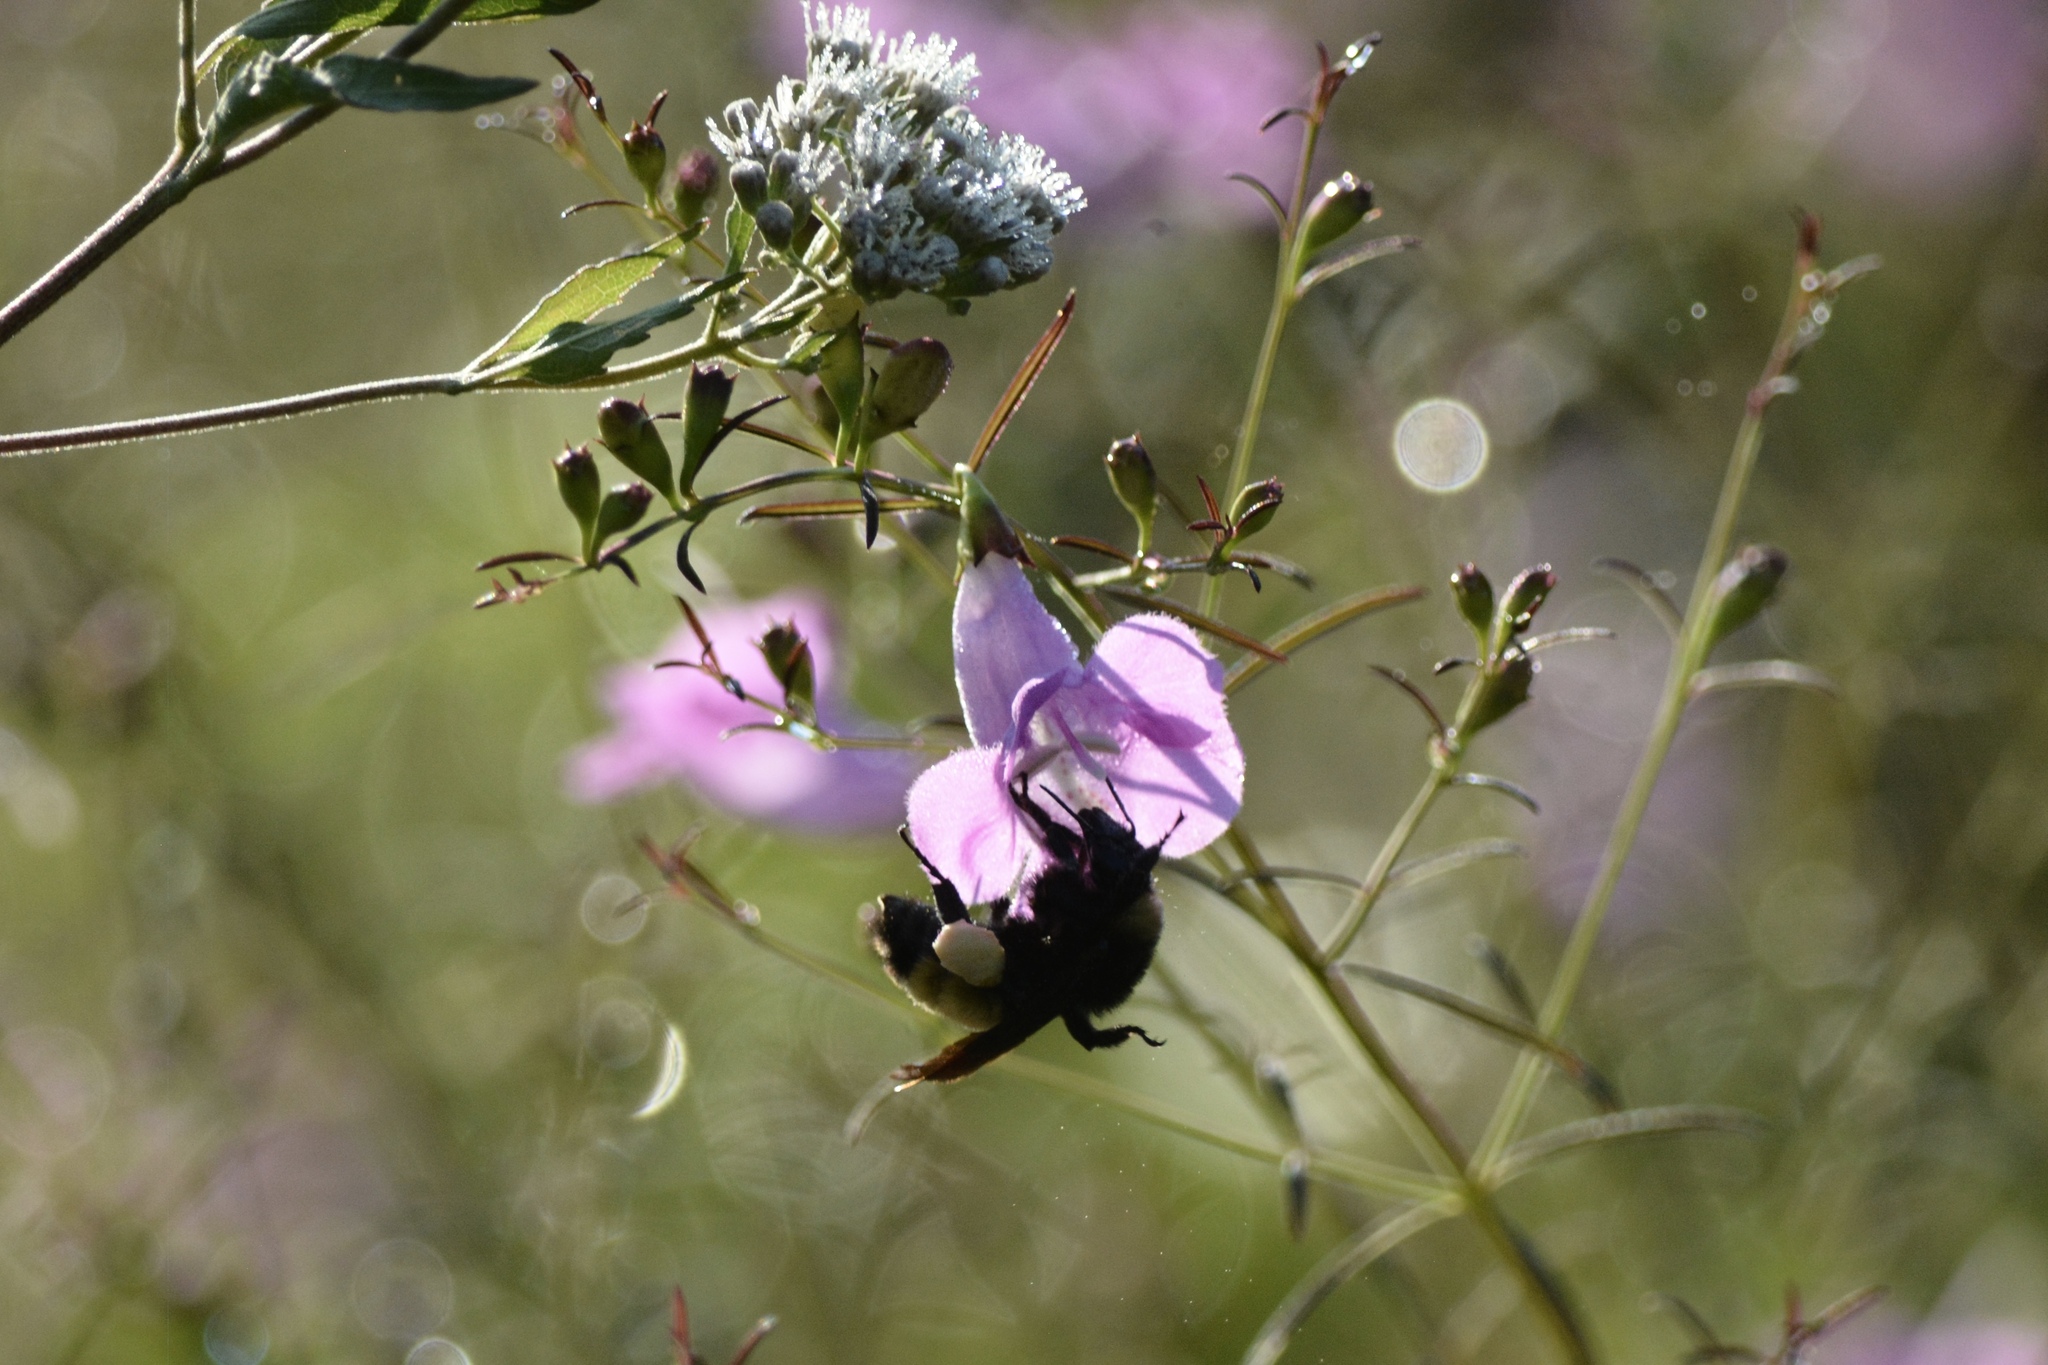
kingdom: Animalia
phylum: Arthropoda
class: Insecta
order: Hymenoptera
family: Apidae
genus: Bombus
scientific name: Bombus pensylvanicus
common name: Bumble bee
